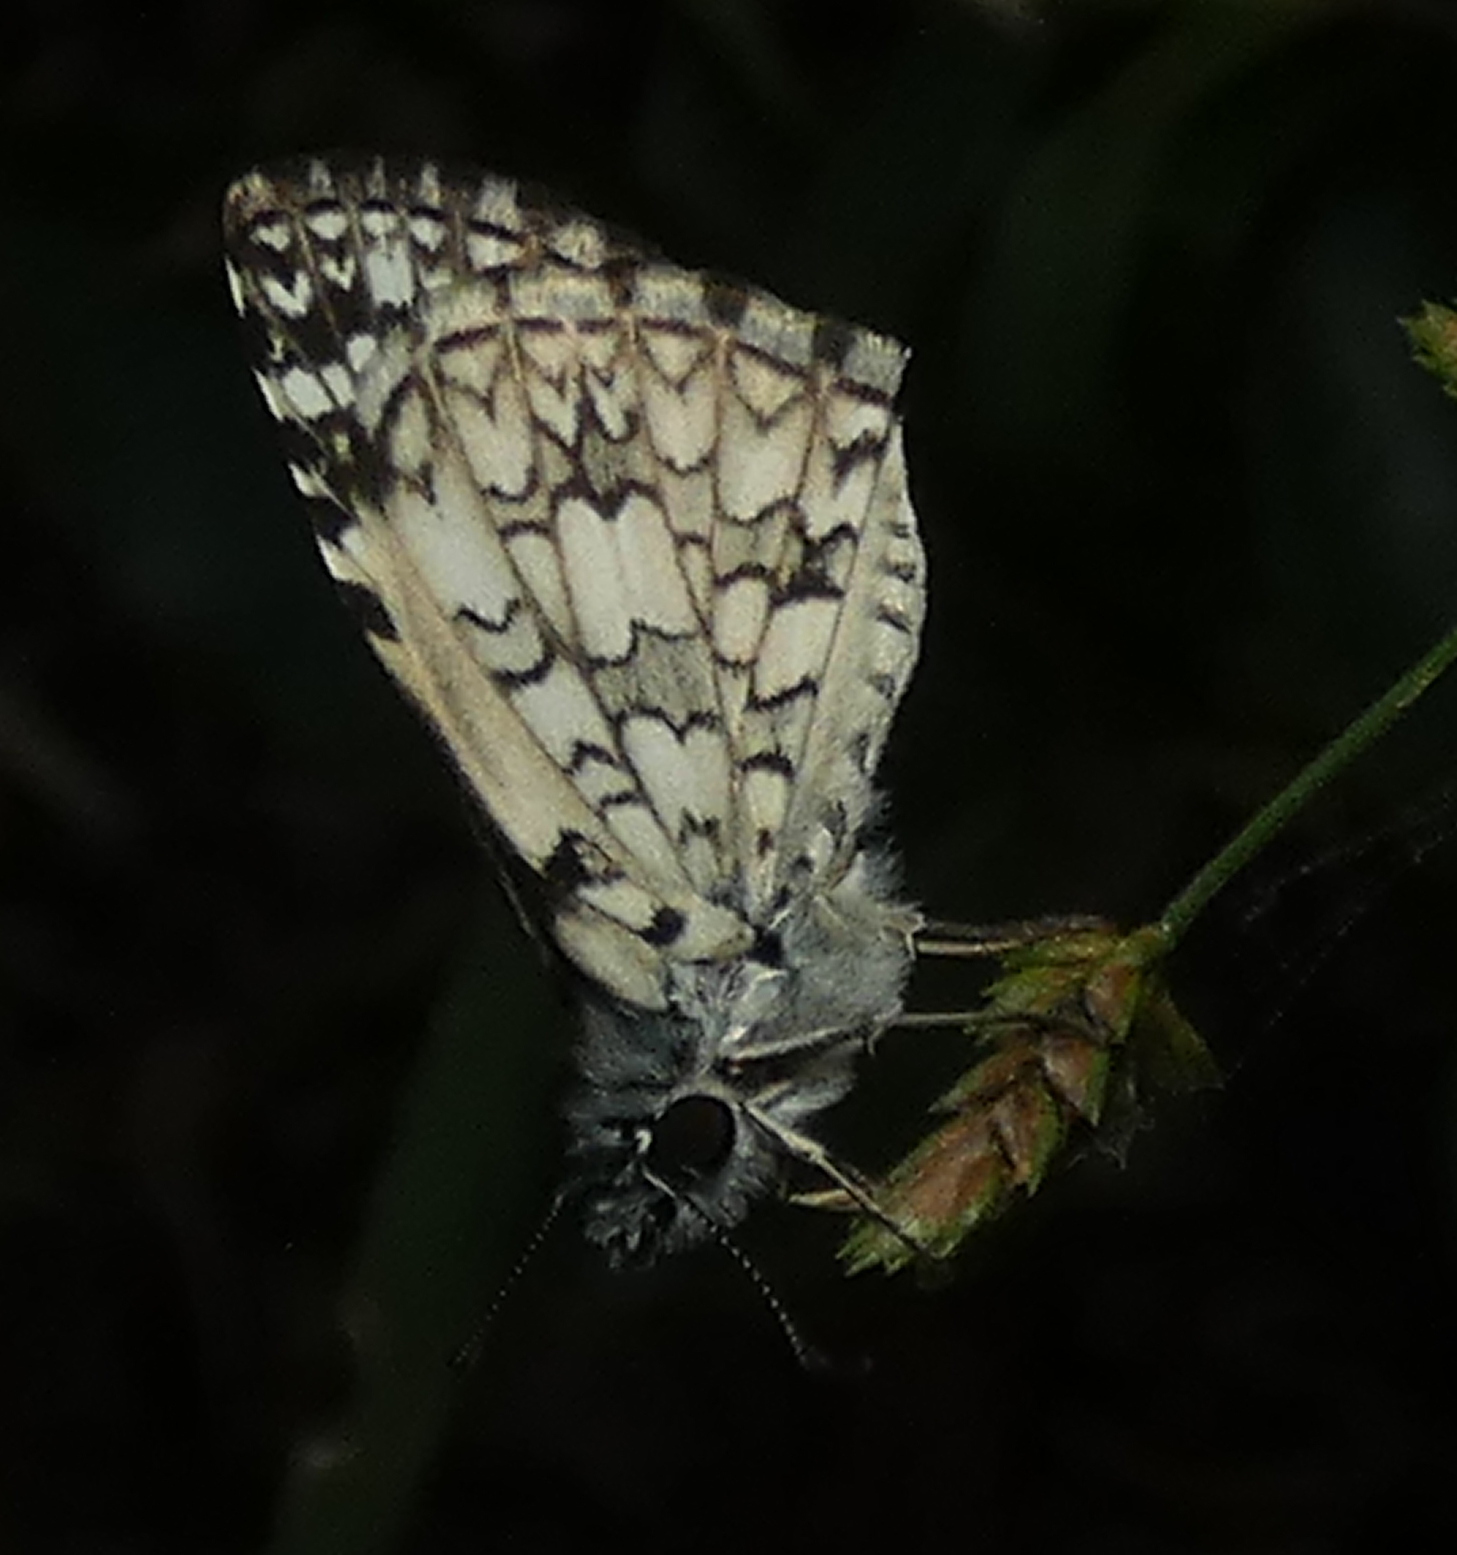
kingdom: Animalia
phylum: Arthropoda
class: Insecta
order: Lepidoptera
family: Hesperiidae
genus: Pyrgus
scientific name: Pyrgus oileus
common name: Tropical checkered-skipper
